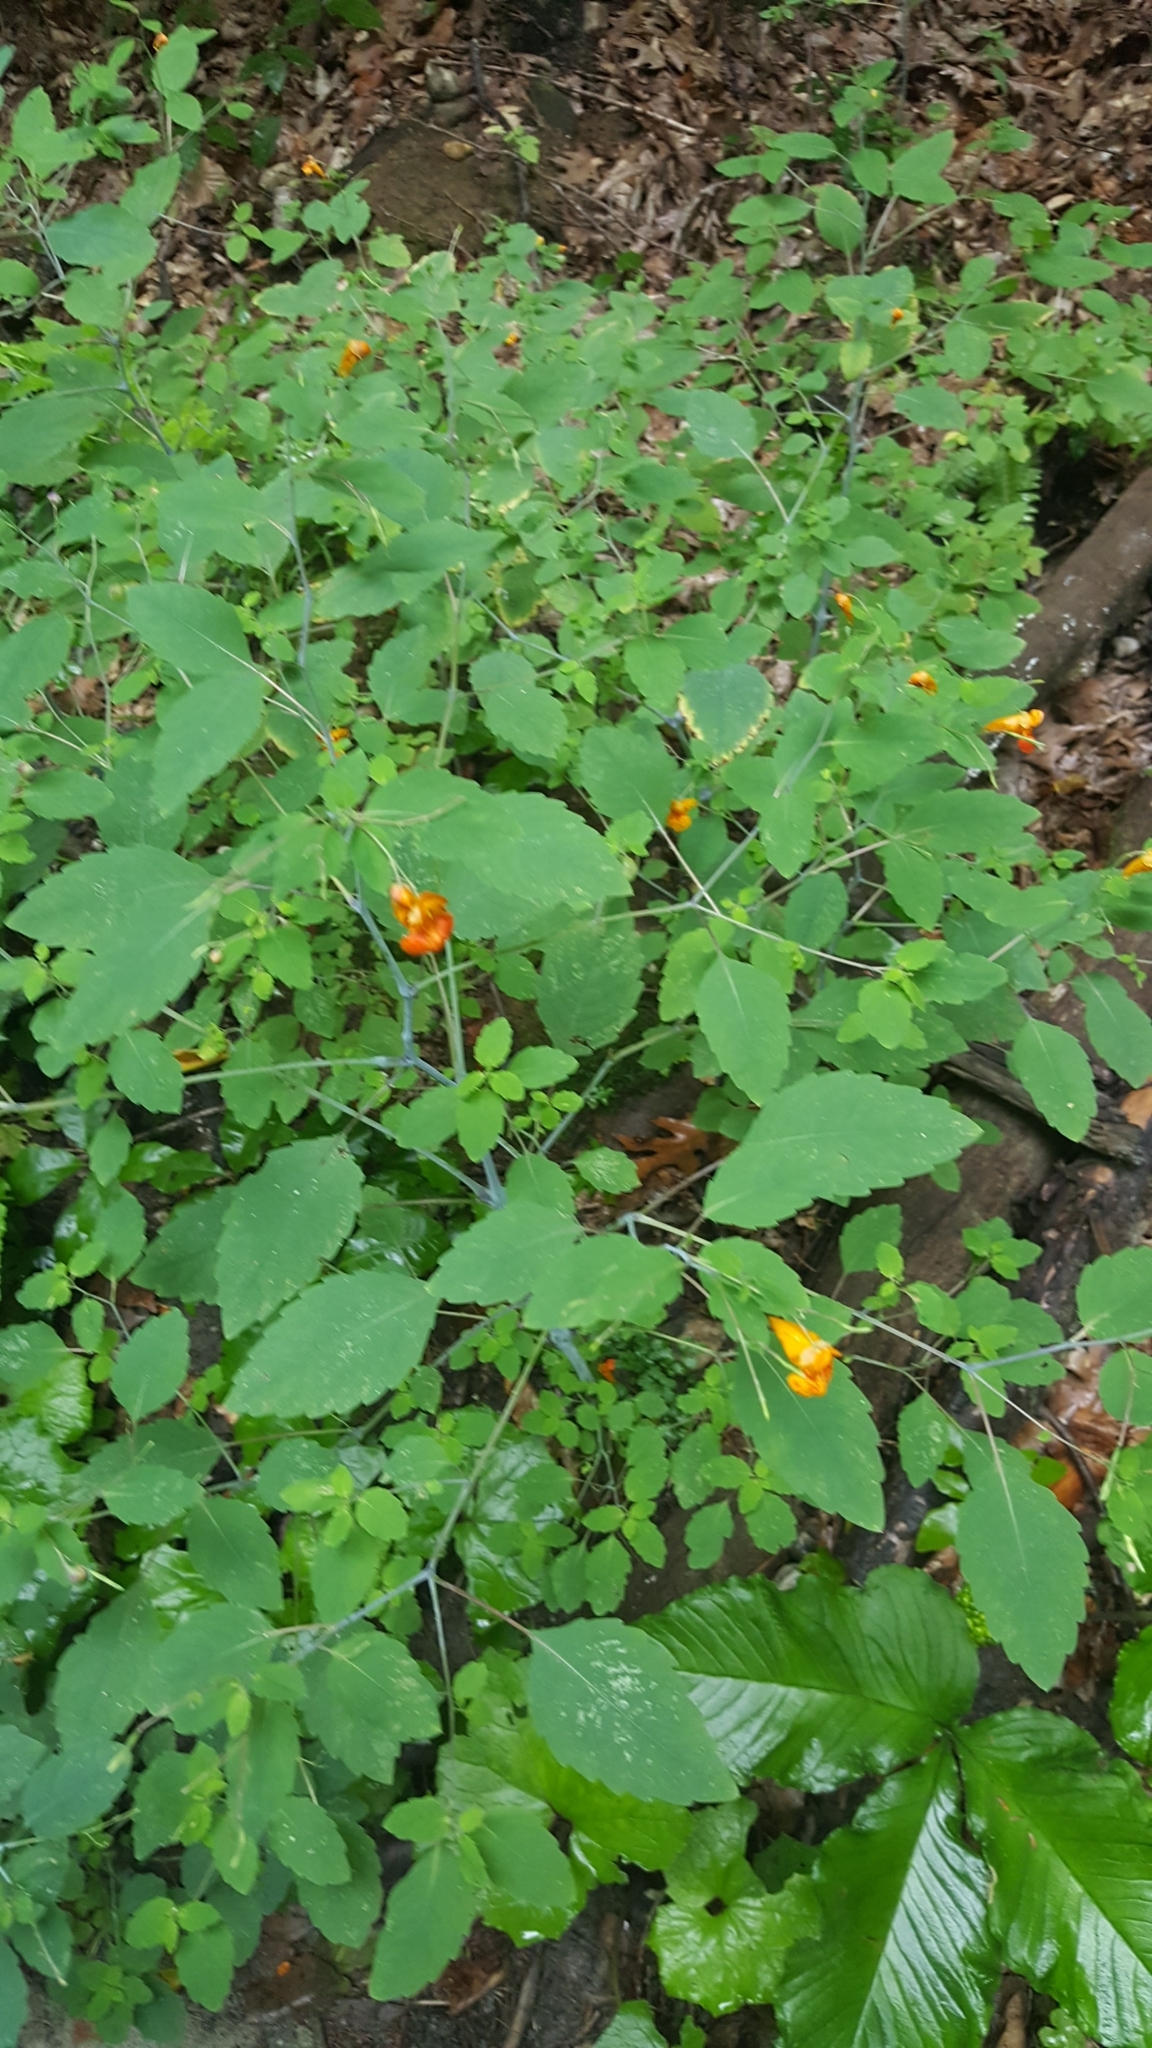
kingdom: Plantae
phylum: Tracheophyta
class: Magnoliopsida
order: Ericales
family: Balsaminaceae
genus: Impatiens
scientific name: Impatiens capensis
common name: Orange balsam
